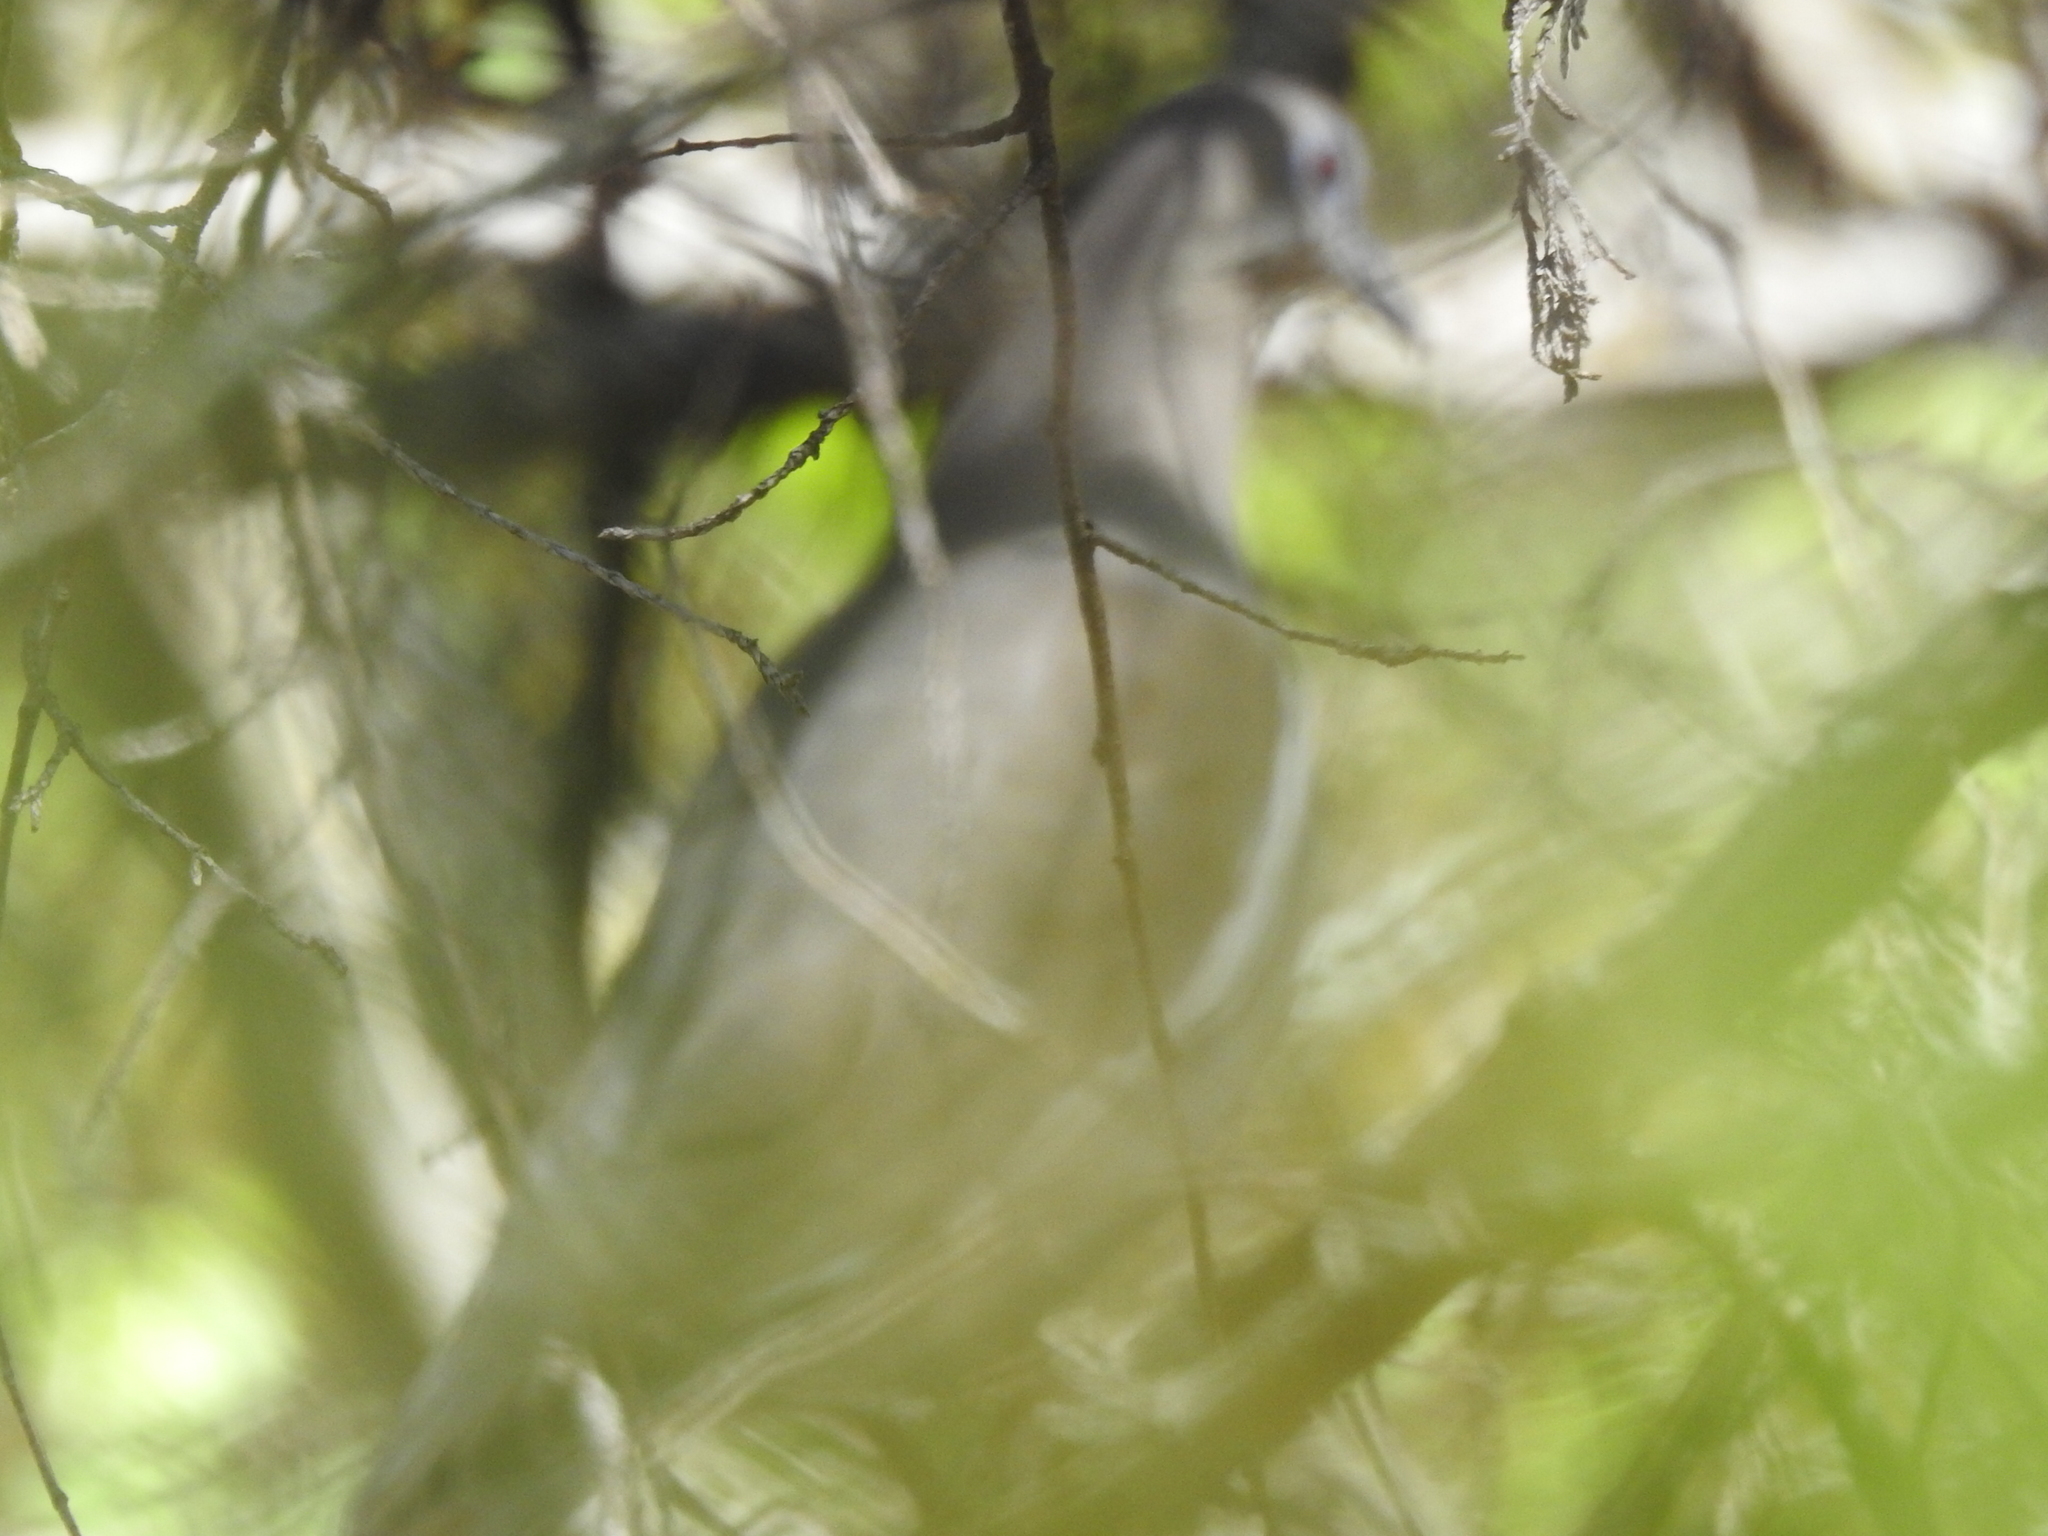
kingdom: Animalia
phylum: Chordata
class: Aves
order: Columbiformes
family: Columbidae
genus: Zenaida
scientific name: Zenaida asiatica
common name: White-winged dove
